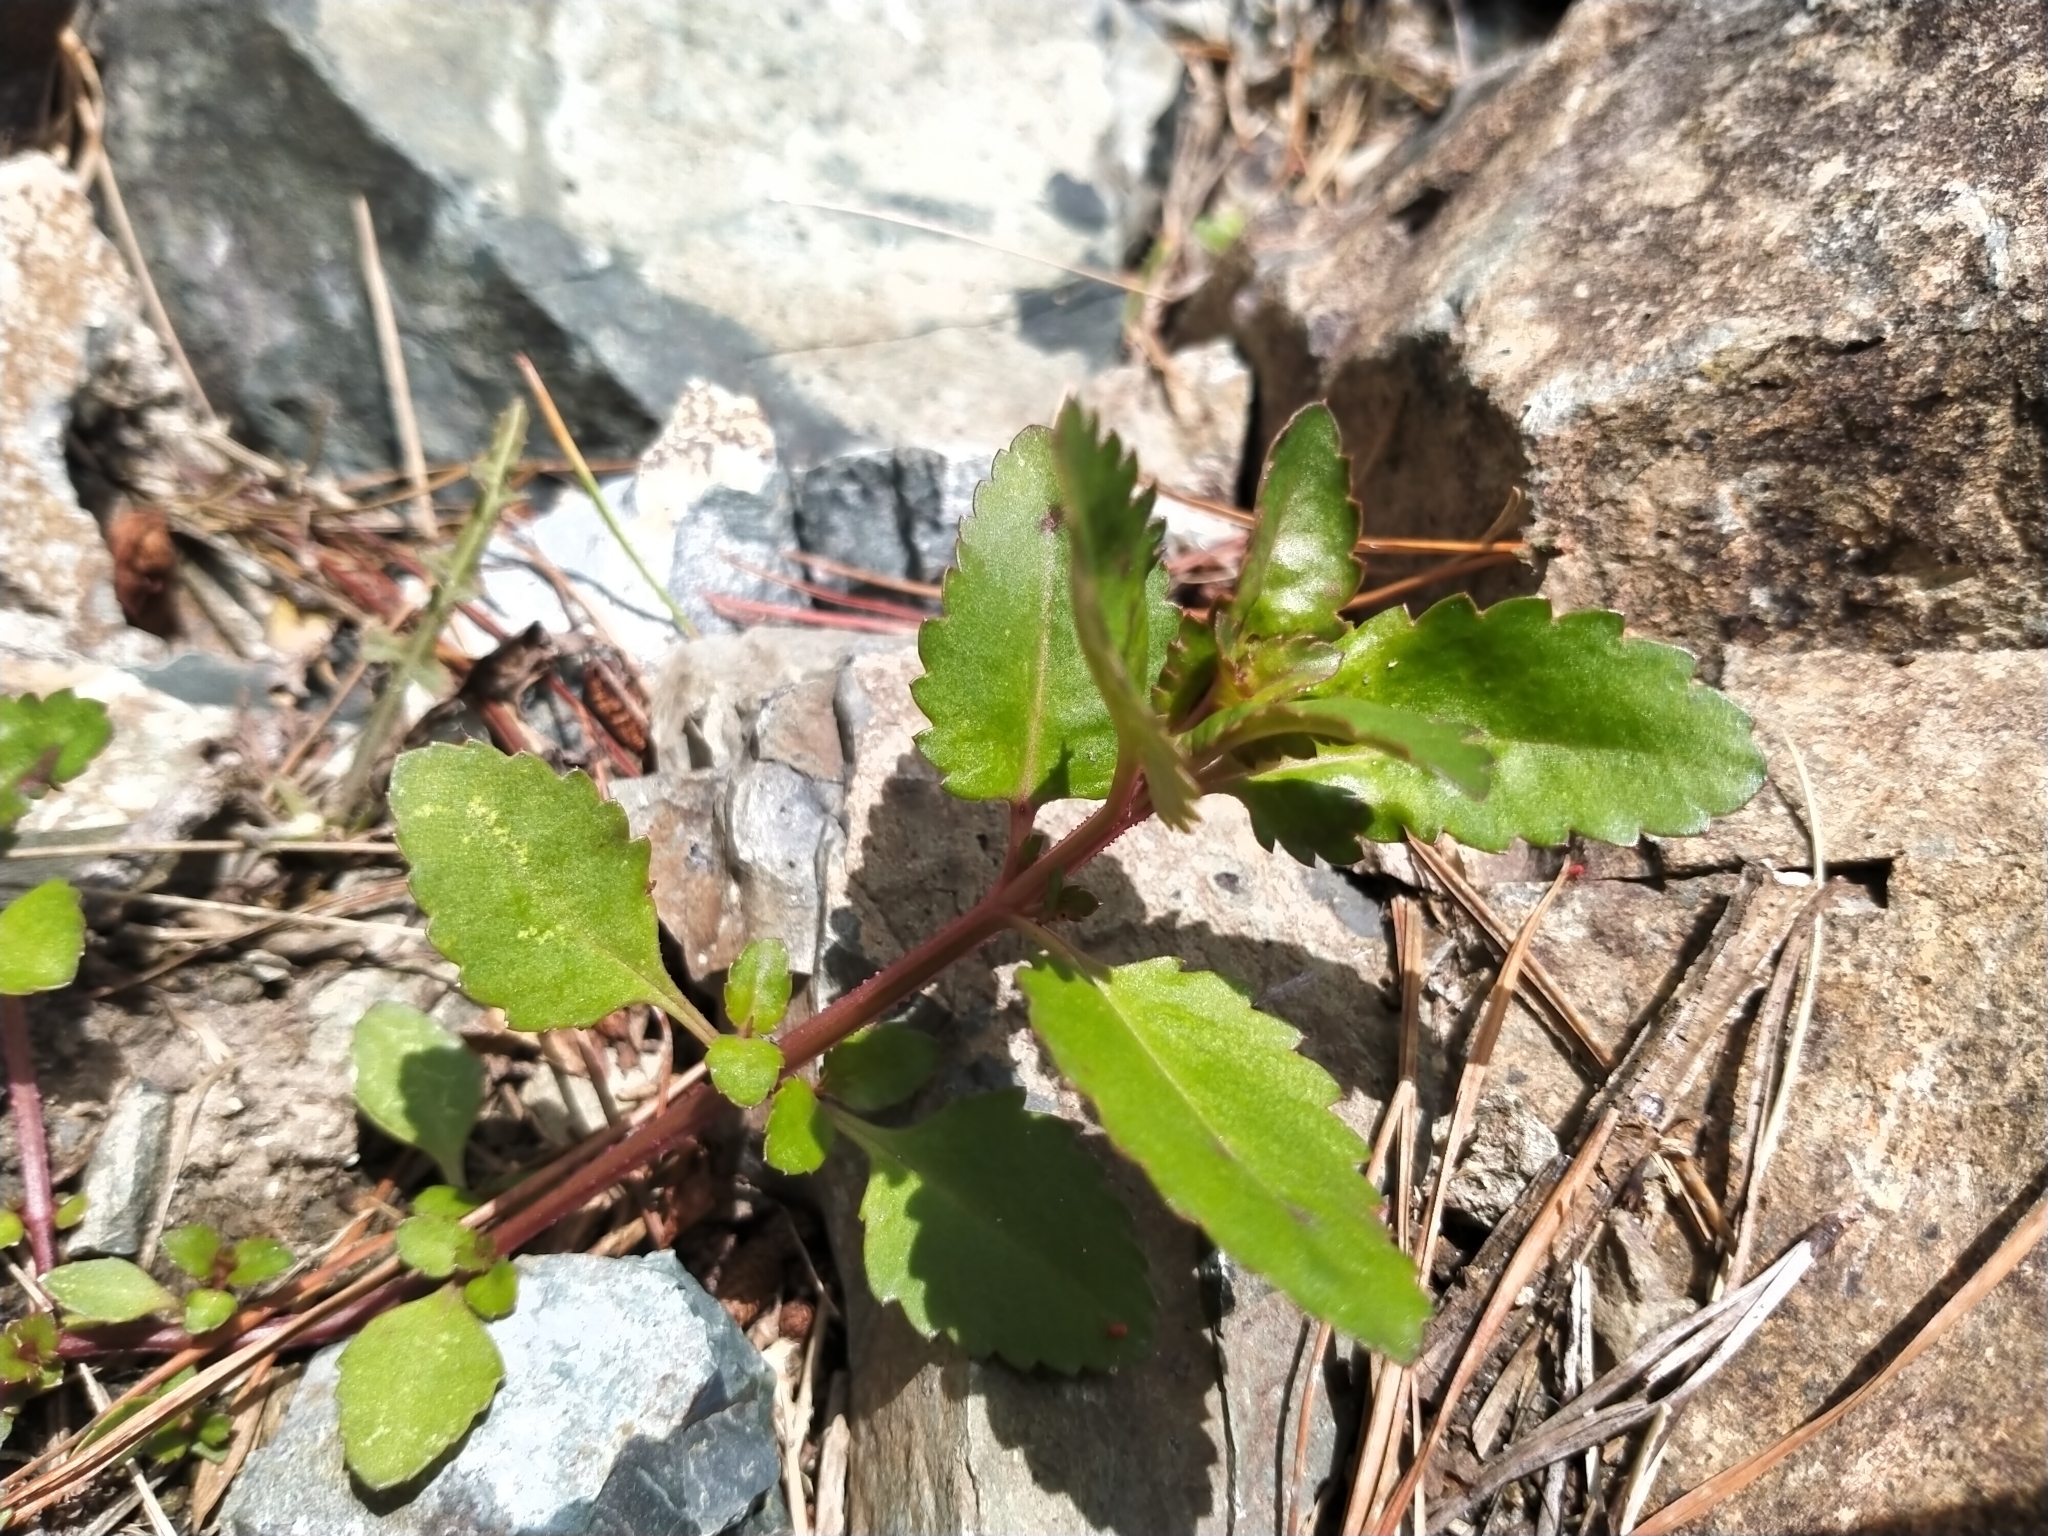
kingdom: Plantae
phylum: Tracheophyta
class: Magnoliopsida
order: Saxifragales
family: Haloragaceae
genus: Haloragis
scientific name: Haloragis erecta
